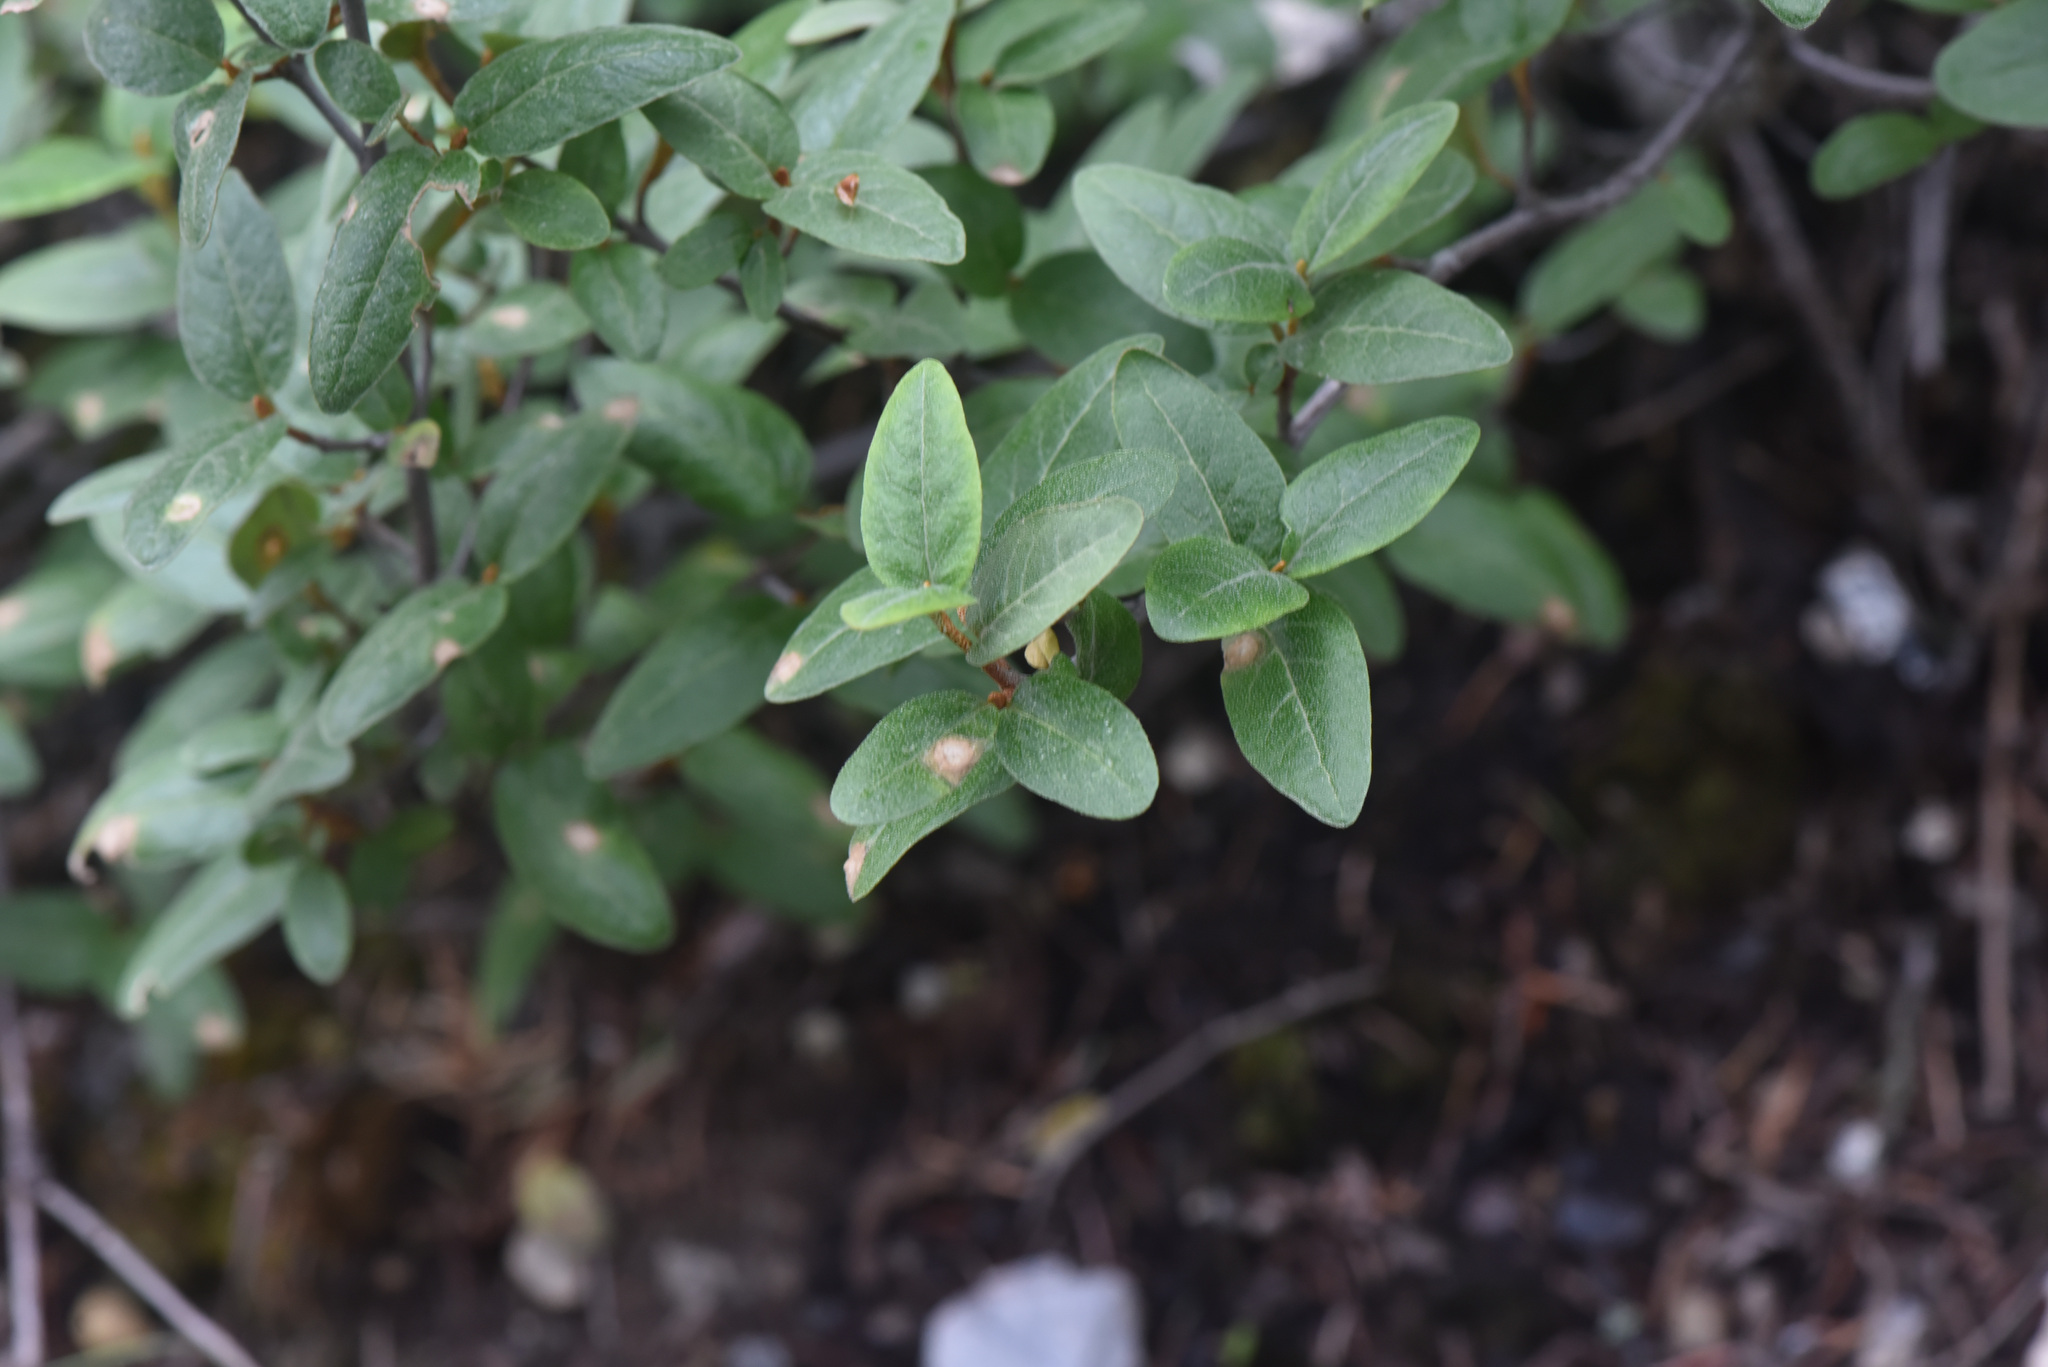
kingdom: Plantae
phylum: Tracheophyta
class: Magnoliopsida
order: Rosales
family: Elaeagnaceae
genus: Shepherdia
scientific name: Shepherdia canadensis
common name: Soapberry
